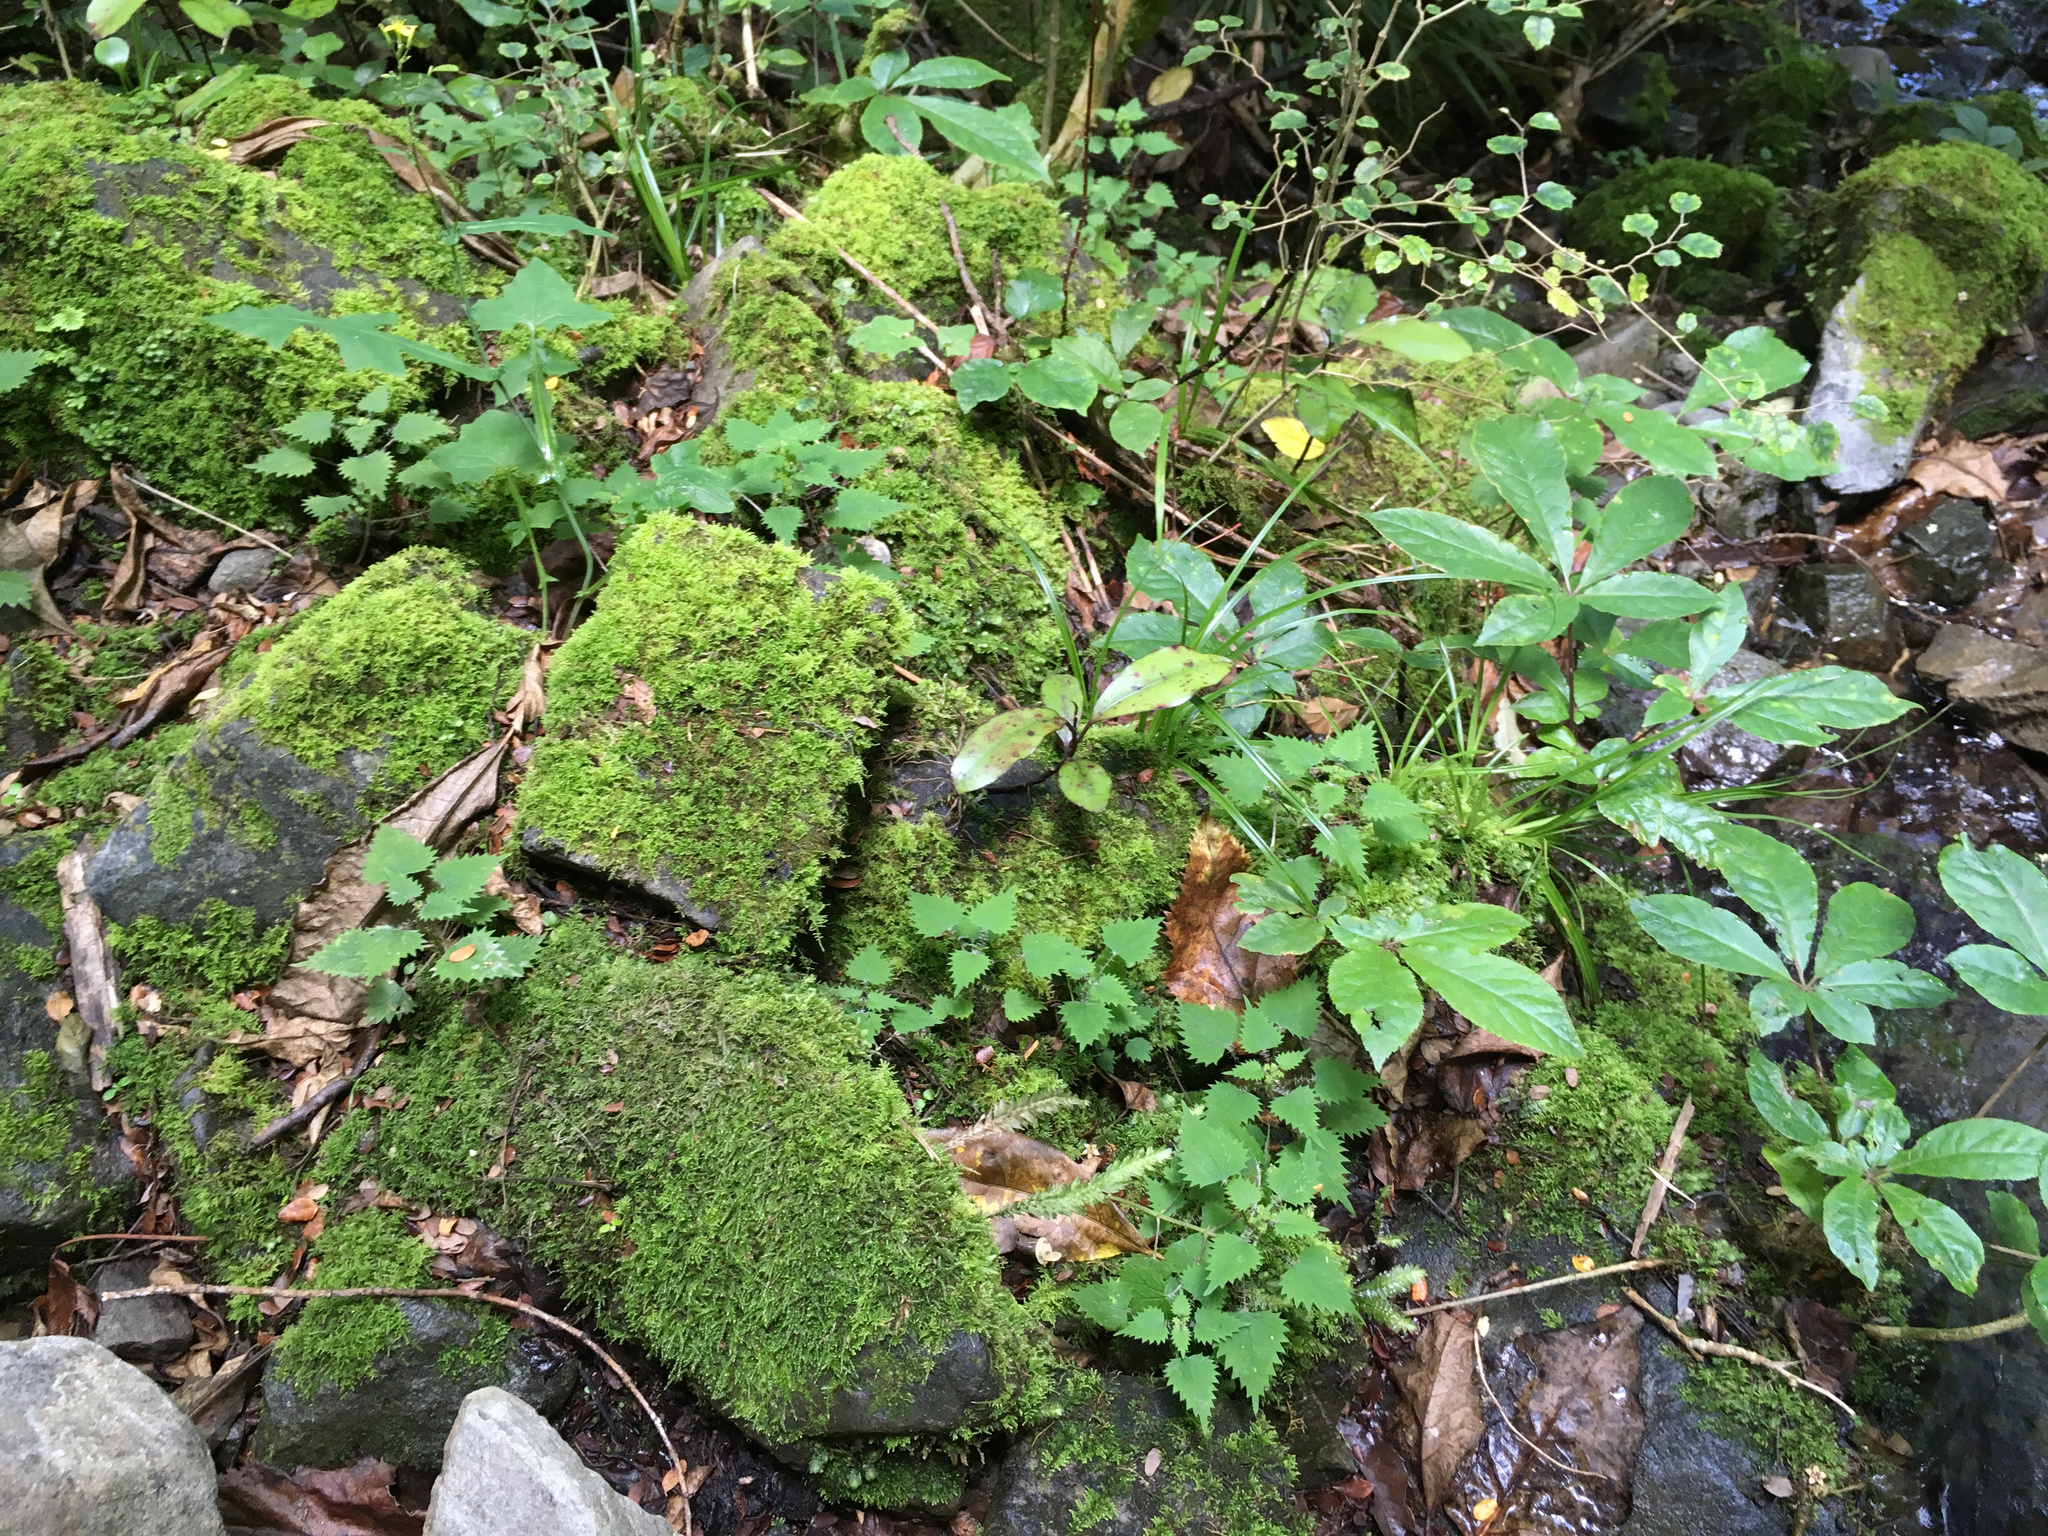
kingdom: Plantae
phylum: Tracheophyta
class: Magnoliopsida
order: Rosales
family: Urticaceae
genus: Urtica
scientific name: Urtica sykesii
